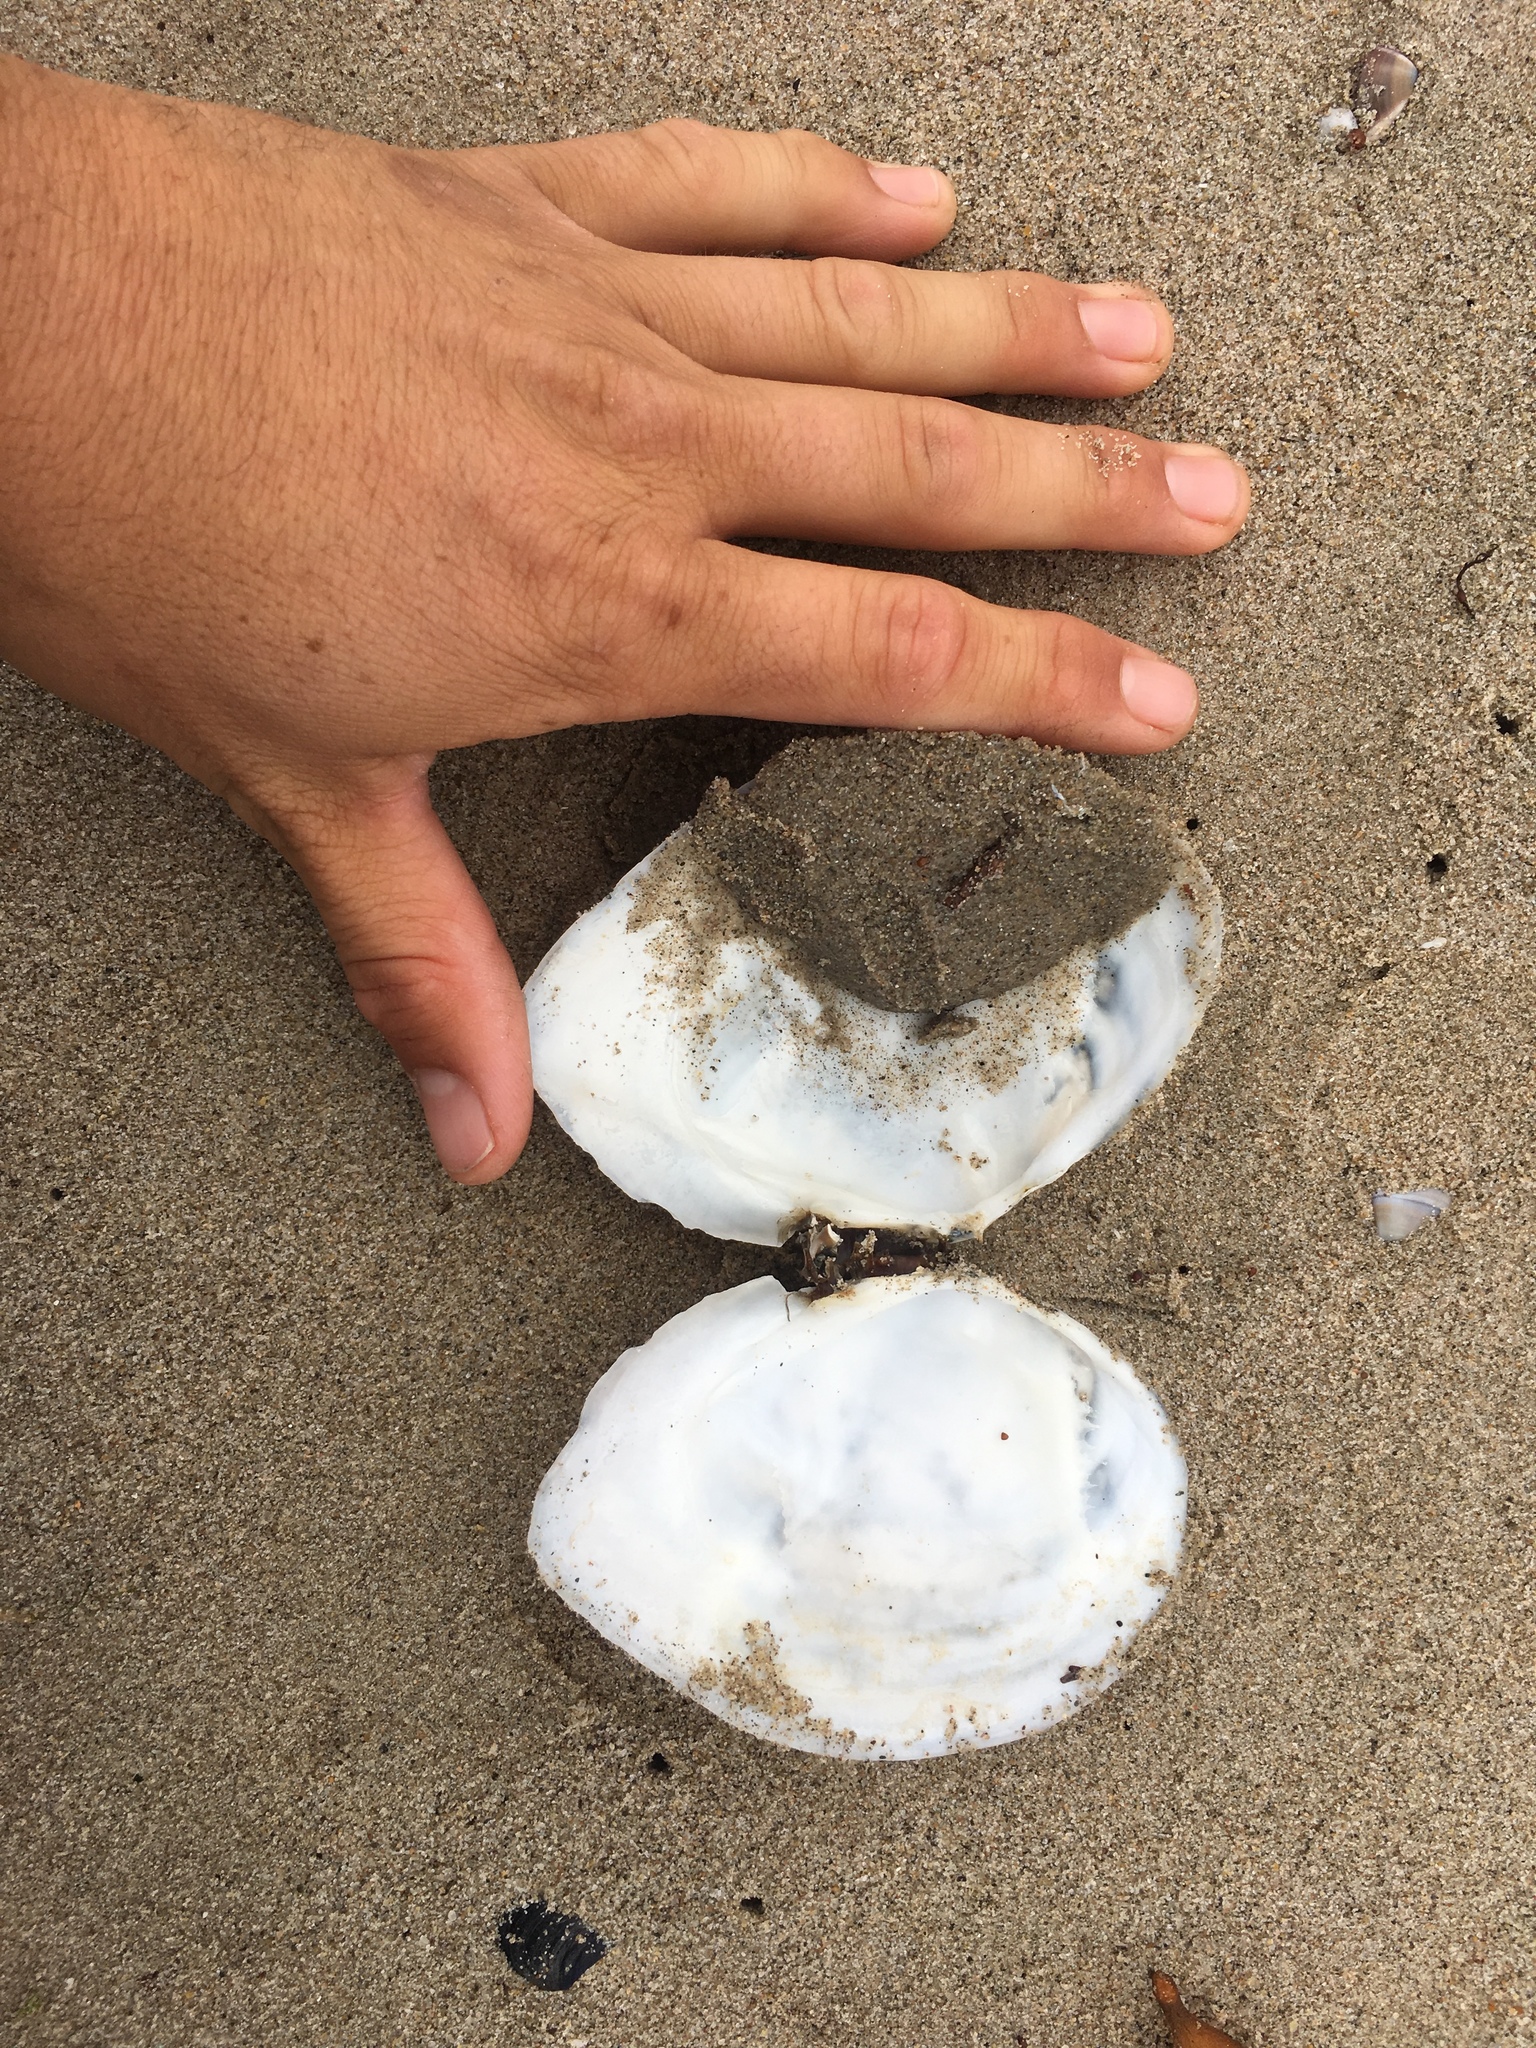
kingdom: Animalia
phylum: Mollusca
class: Bivalvia
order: Cardiida
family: Tellinidae
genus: Rexithaerus
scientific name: Rexithaerus secta
